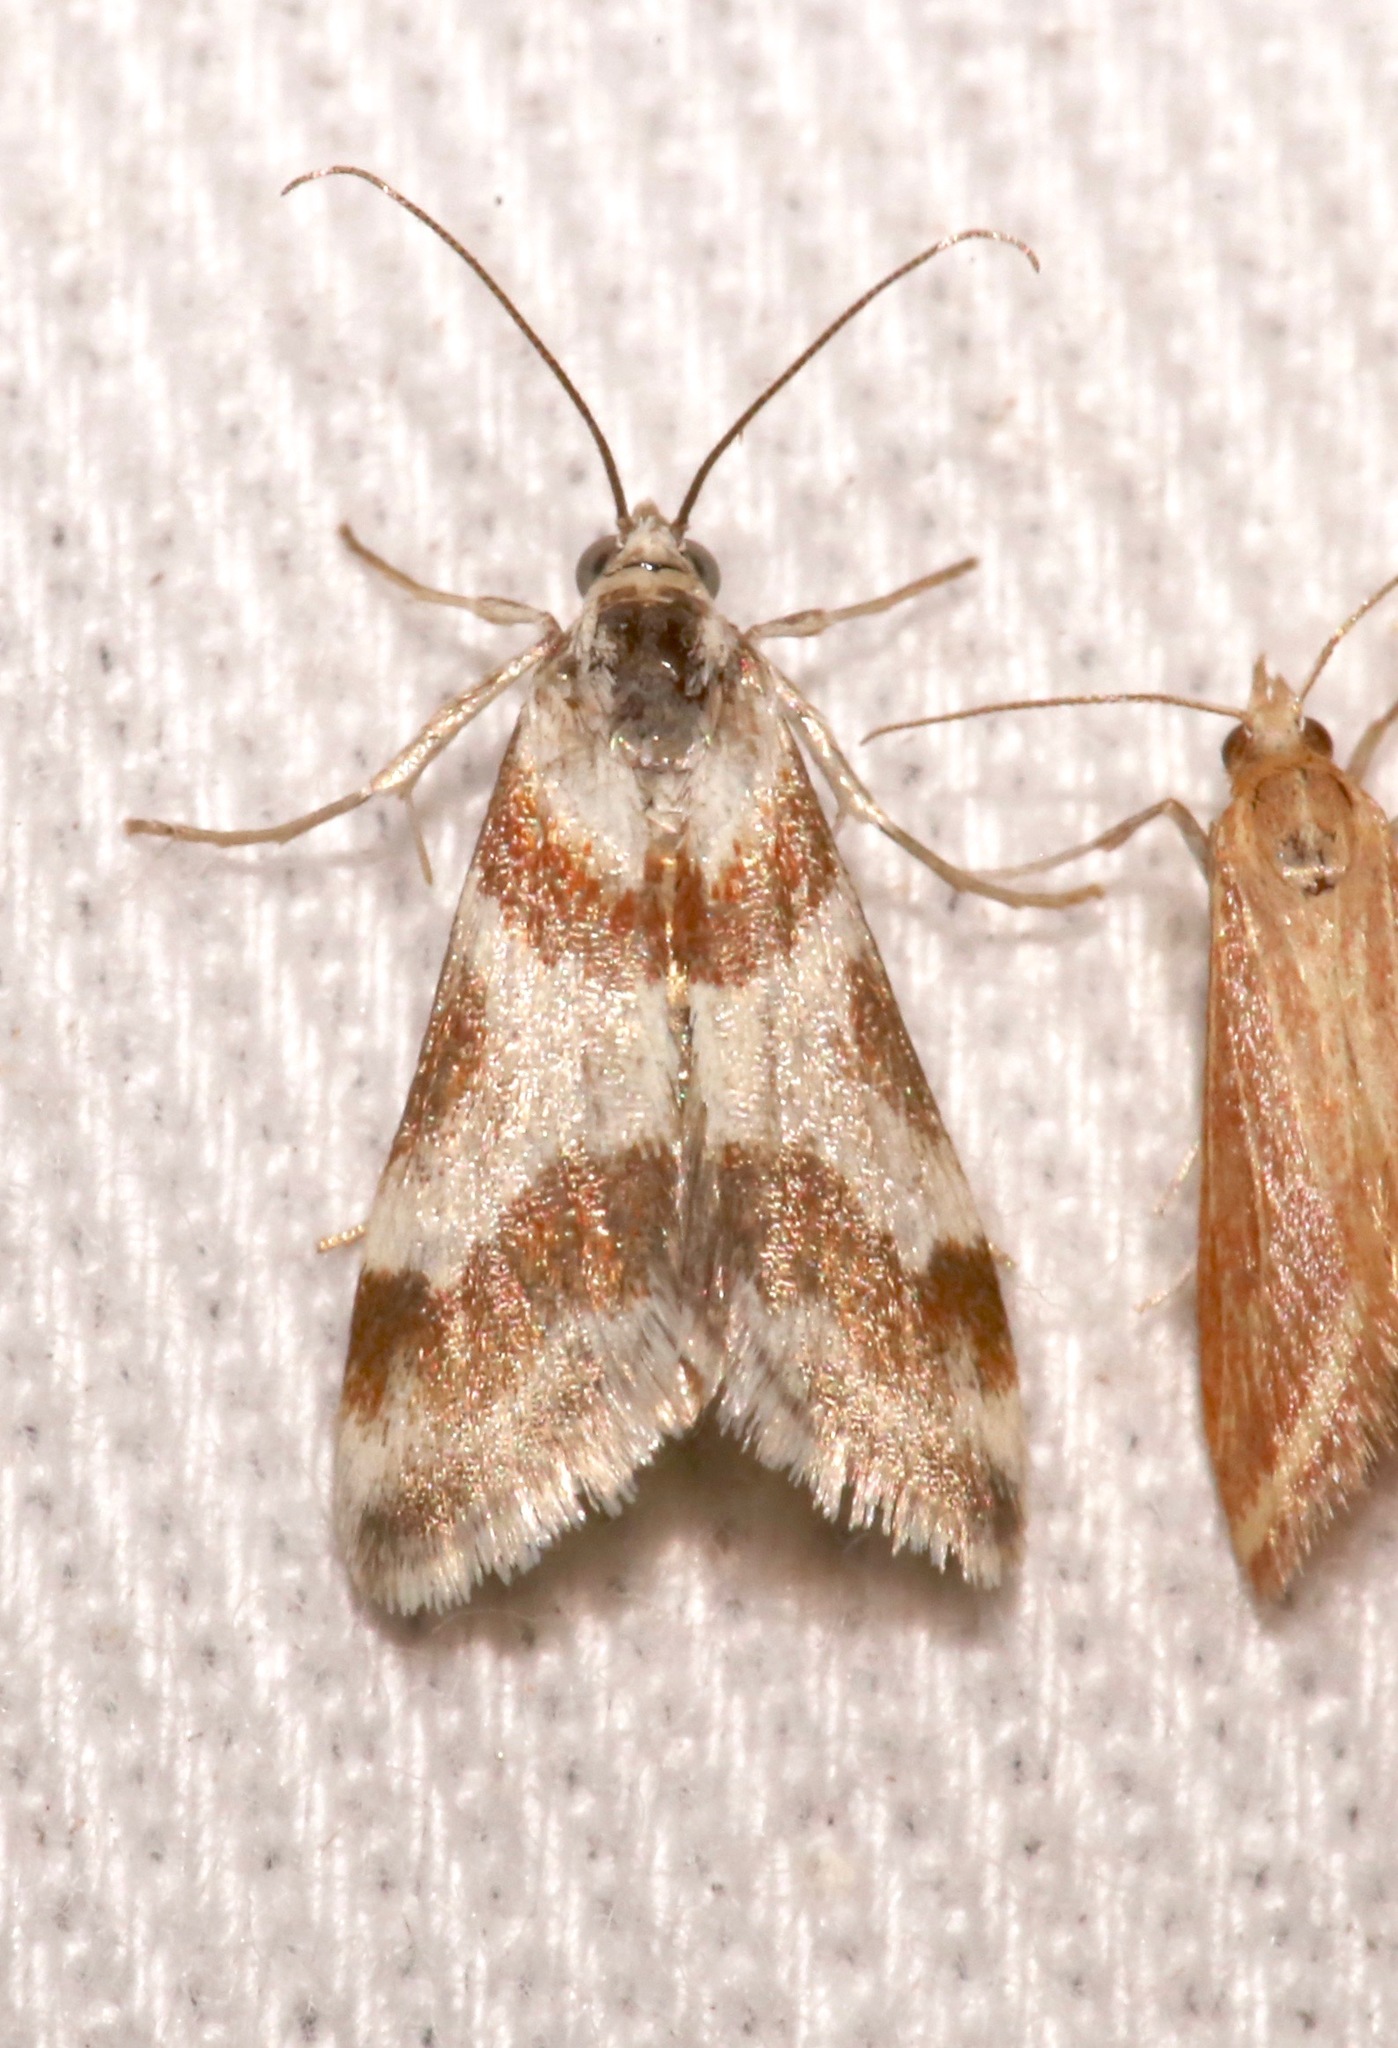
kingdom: Animalia
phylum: Arthropoda
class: Insecta
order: Lepidoptera
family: Crambidae
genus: Noctuelia
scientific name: Noctuelia Mimoschinia rufofascialis
